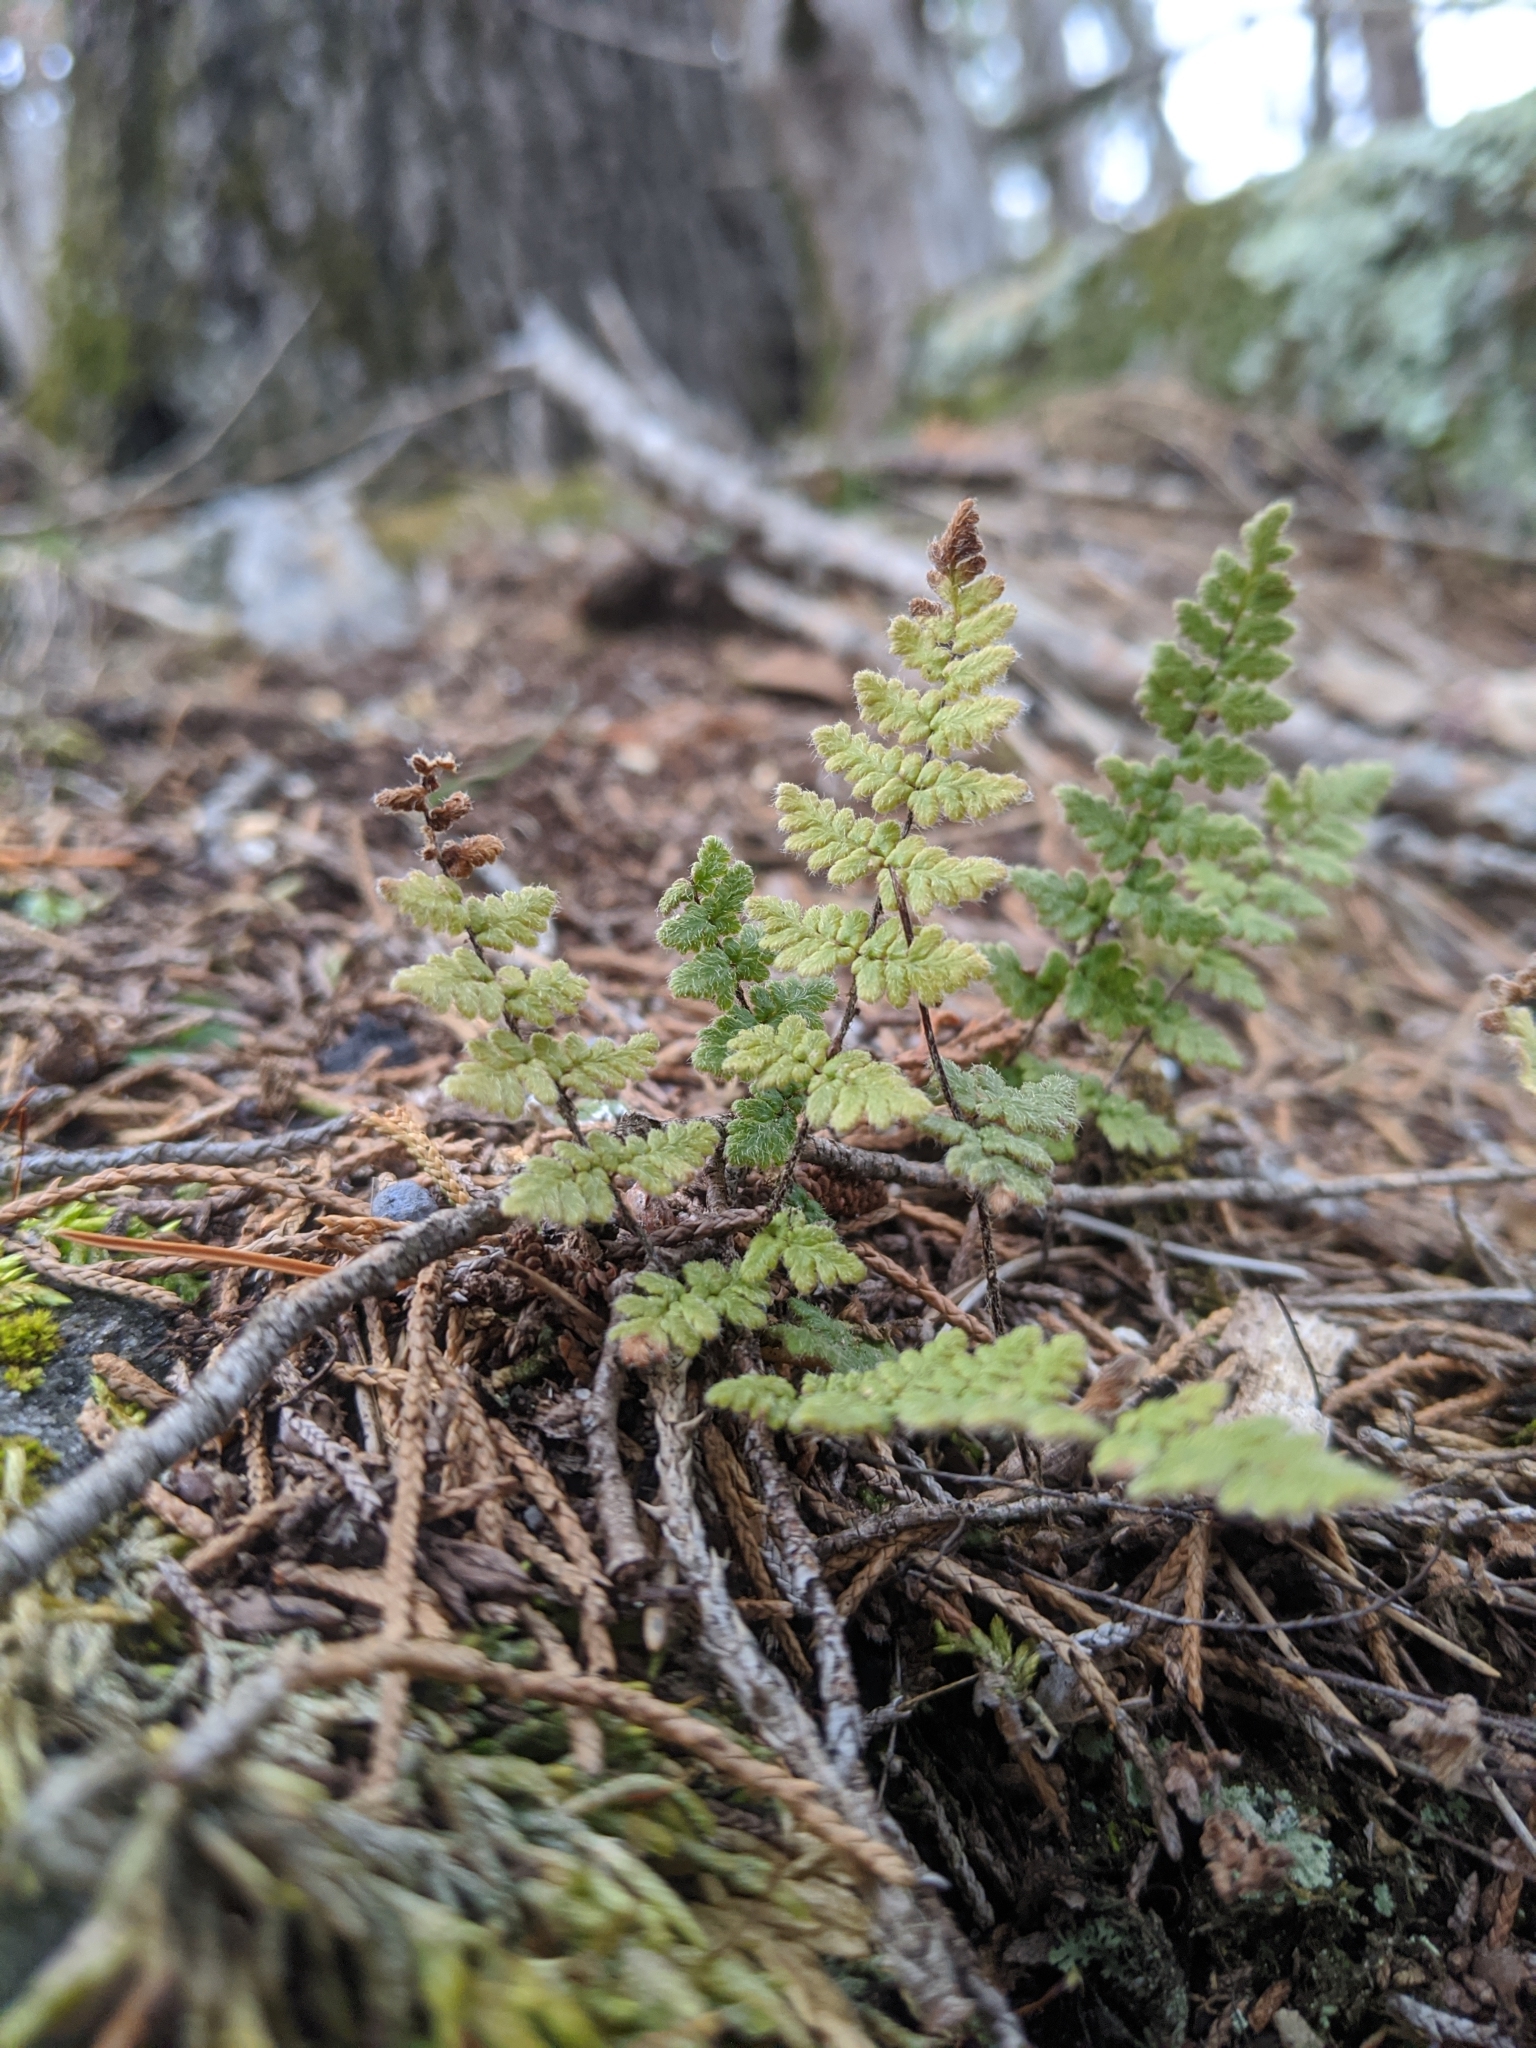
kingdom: Plantae
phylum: Tracheophyta
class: Polypodiopsida
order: Polypodiales
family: Pteridaceae
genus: Myriopteris
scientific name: Myriopteris lanosa
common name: Hairy lip fern
